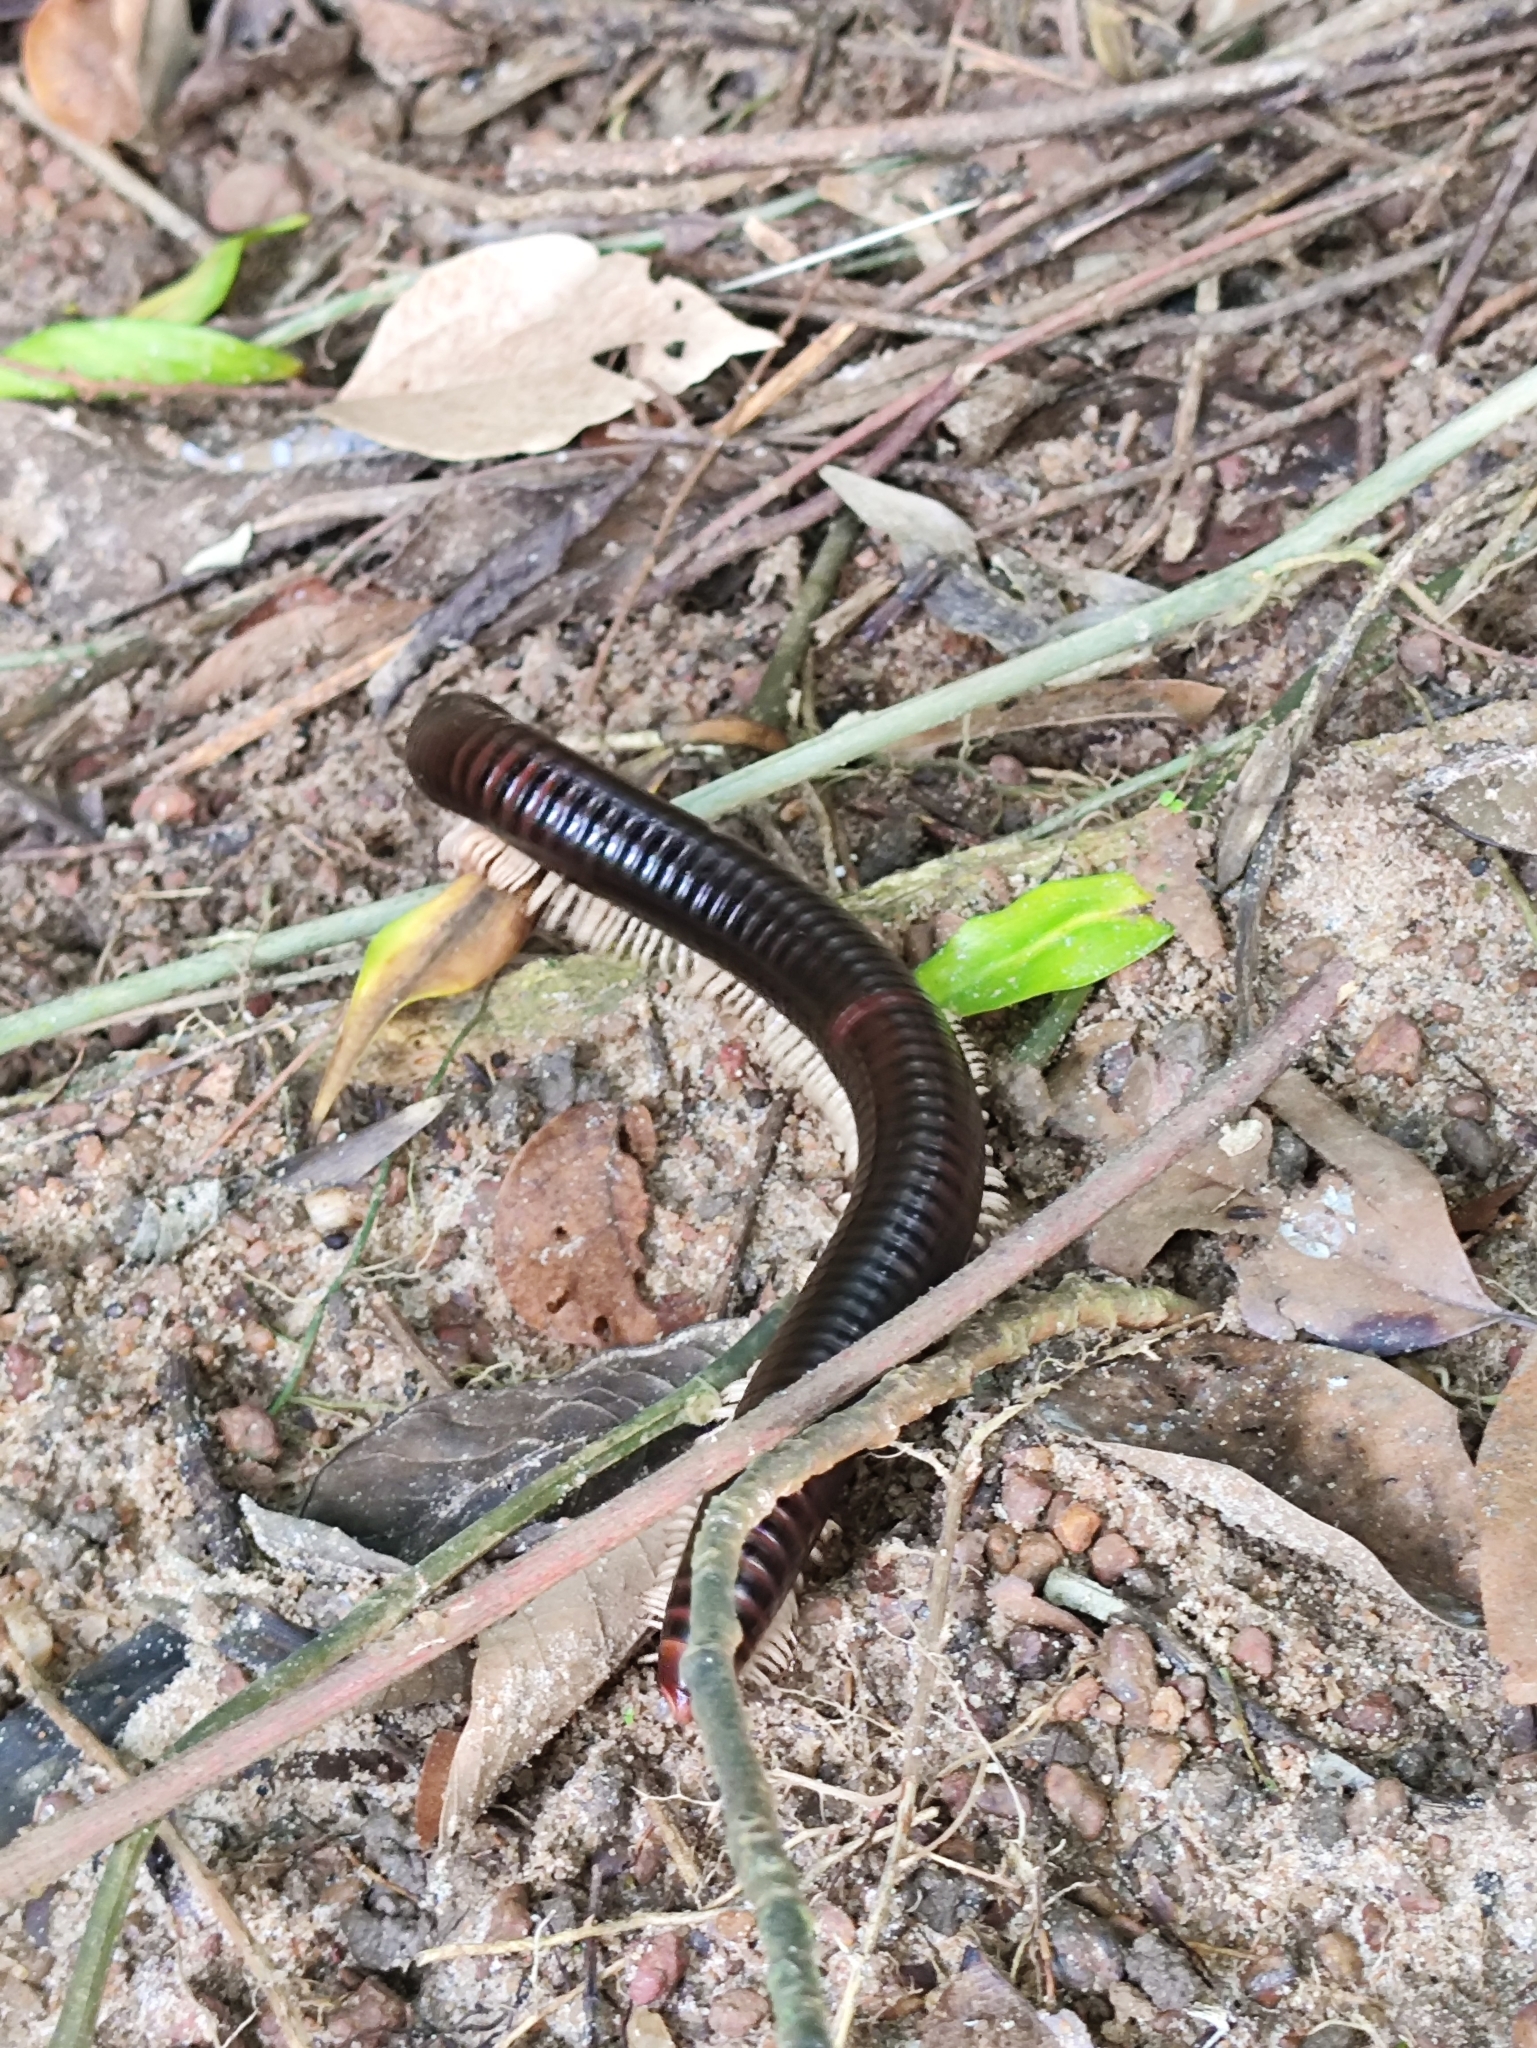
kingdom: Animalia
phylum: Arthropoda
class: Diplopoda
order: Spirostreptida
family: Harpagophoridae
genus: Phyllogonostreptus
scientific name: Phyllogonostreptus nigrolabiatus
